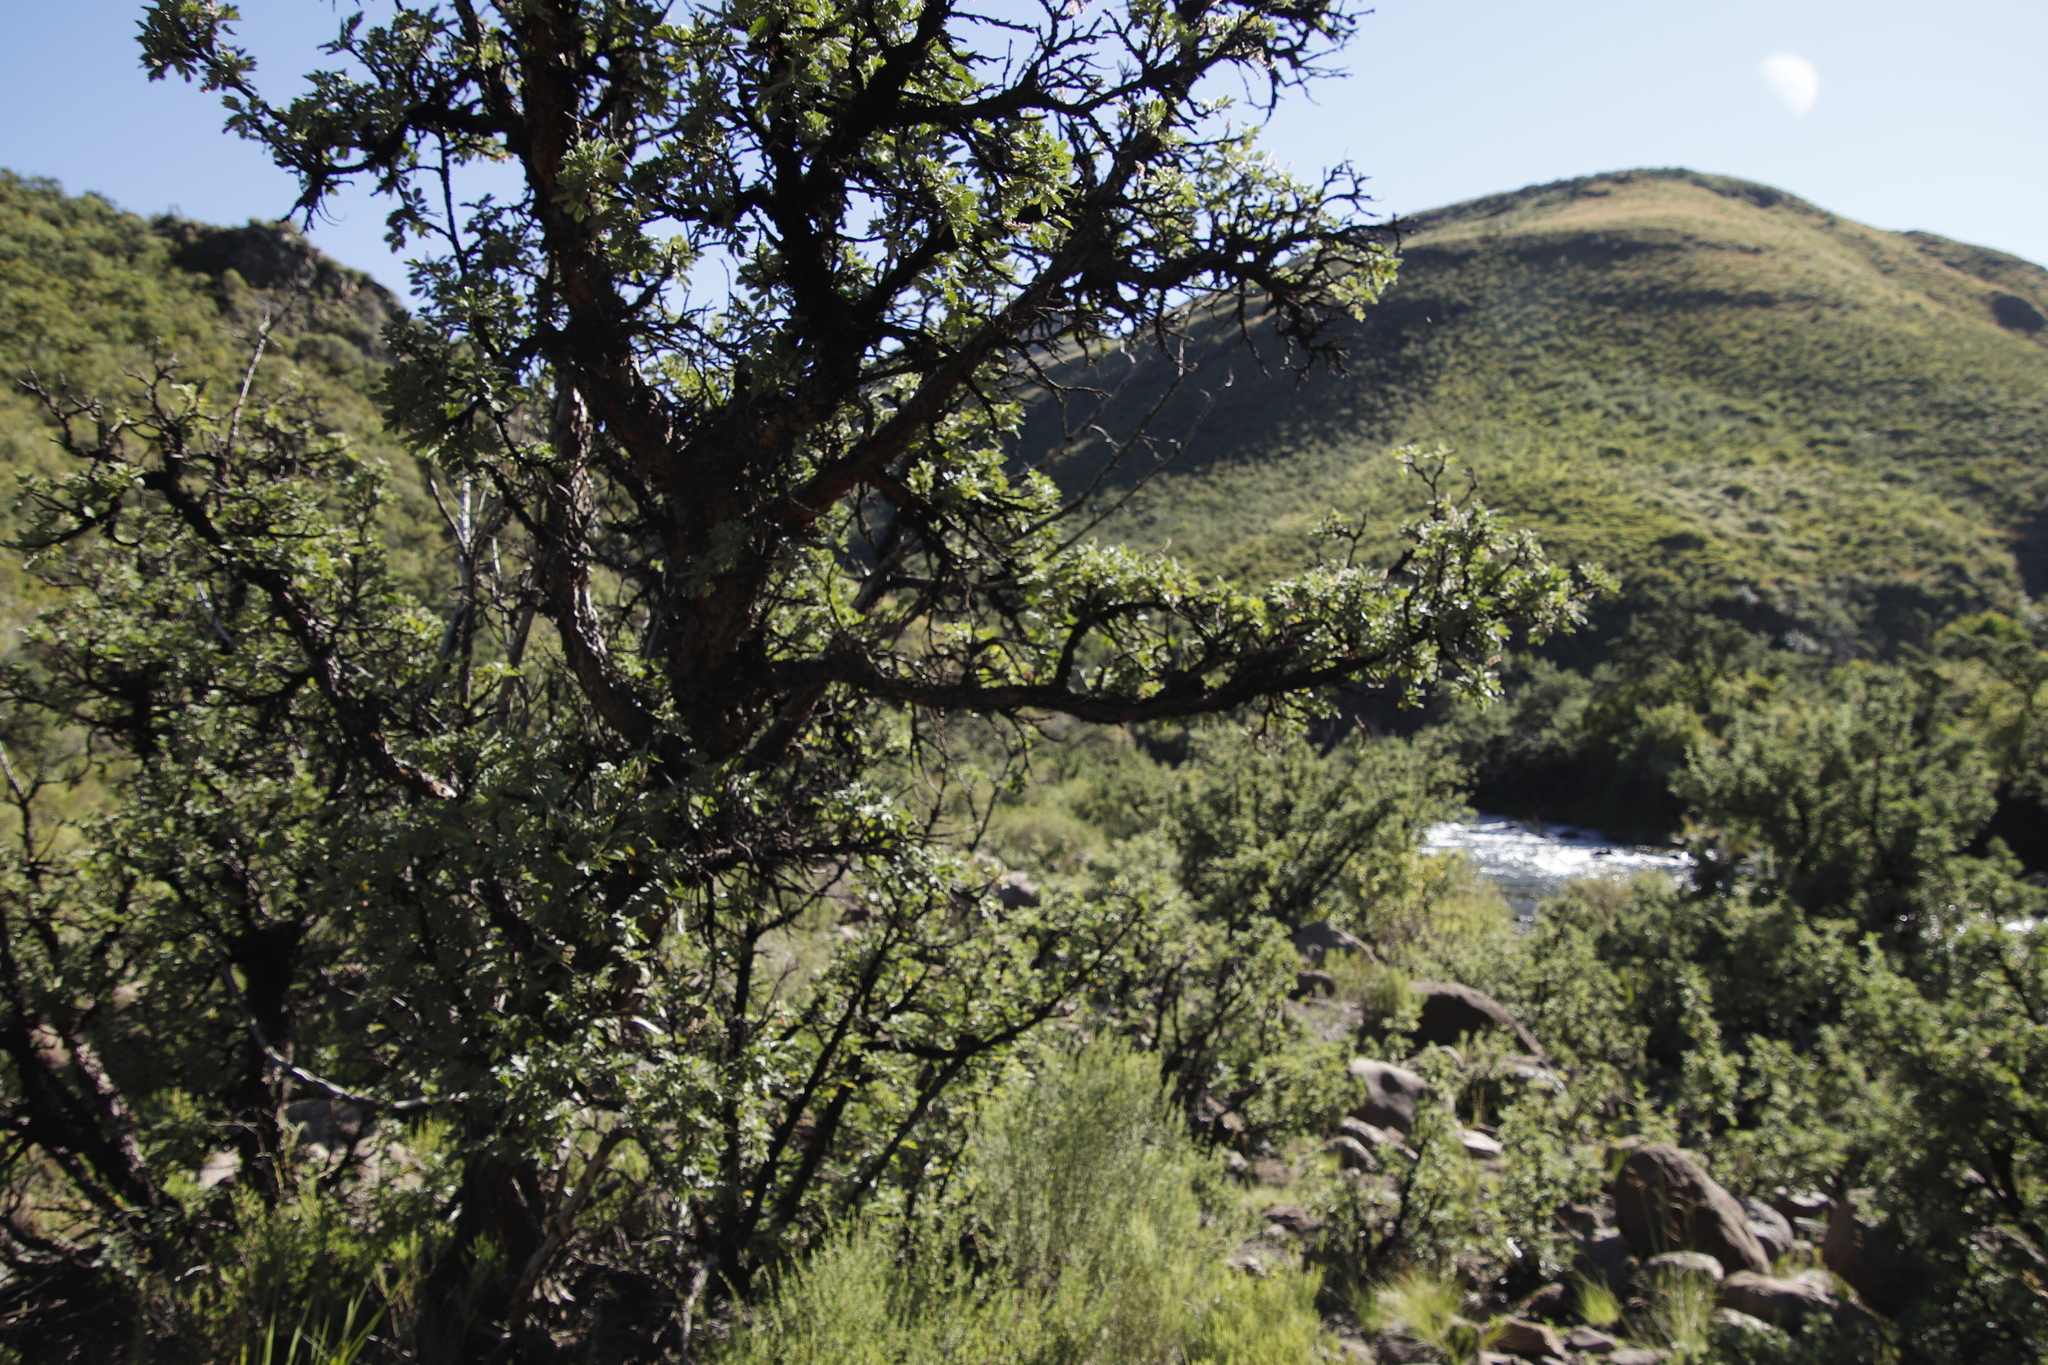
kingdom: Plantae
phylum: Tracheophyta
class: Magnoliopsida
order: Rosales
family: Rosaceae
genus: Leucosidea
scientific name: Leucosidea sericea
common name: Oldwood
